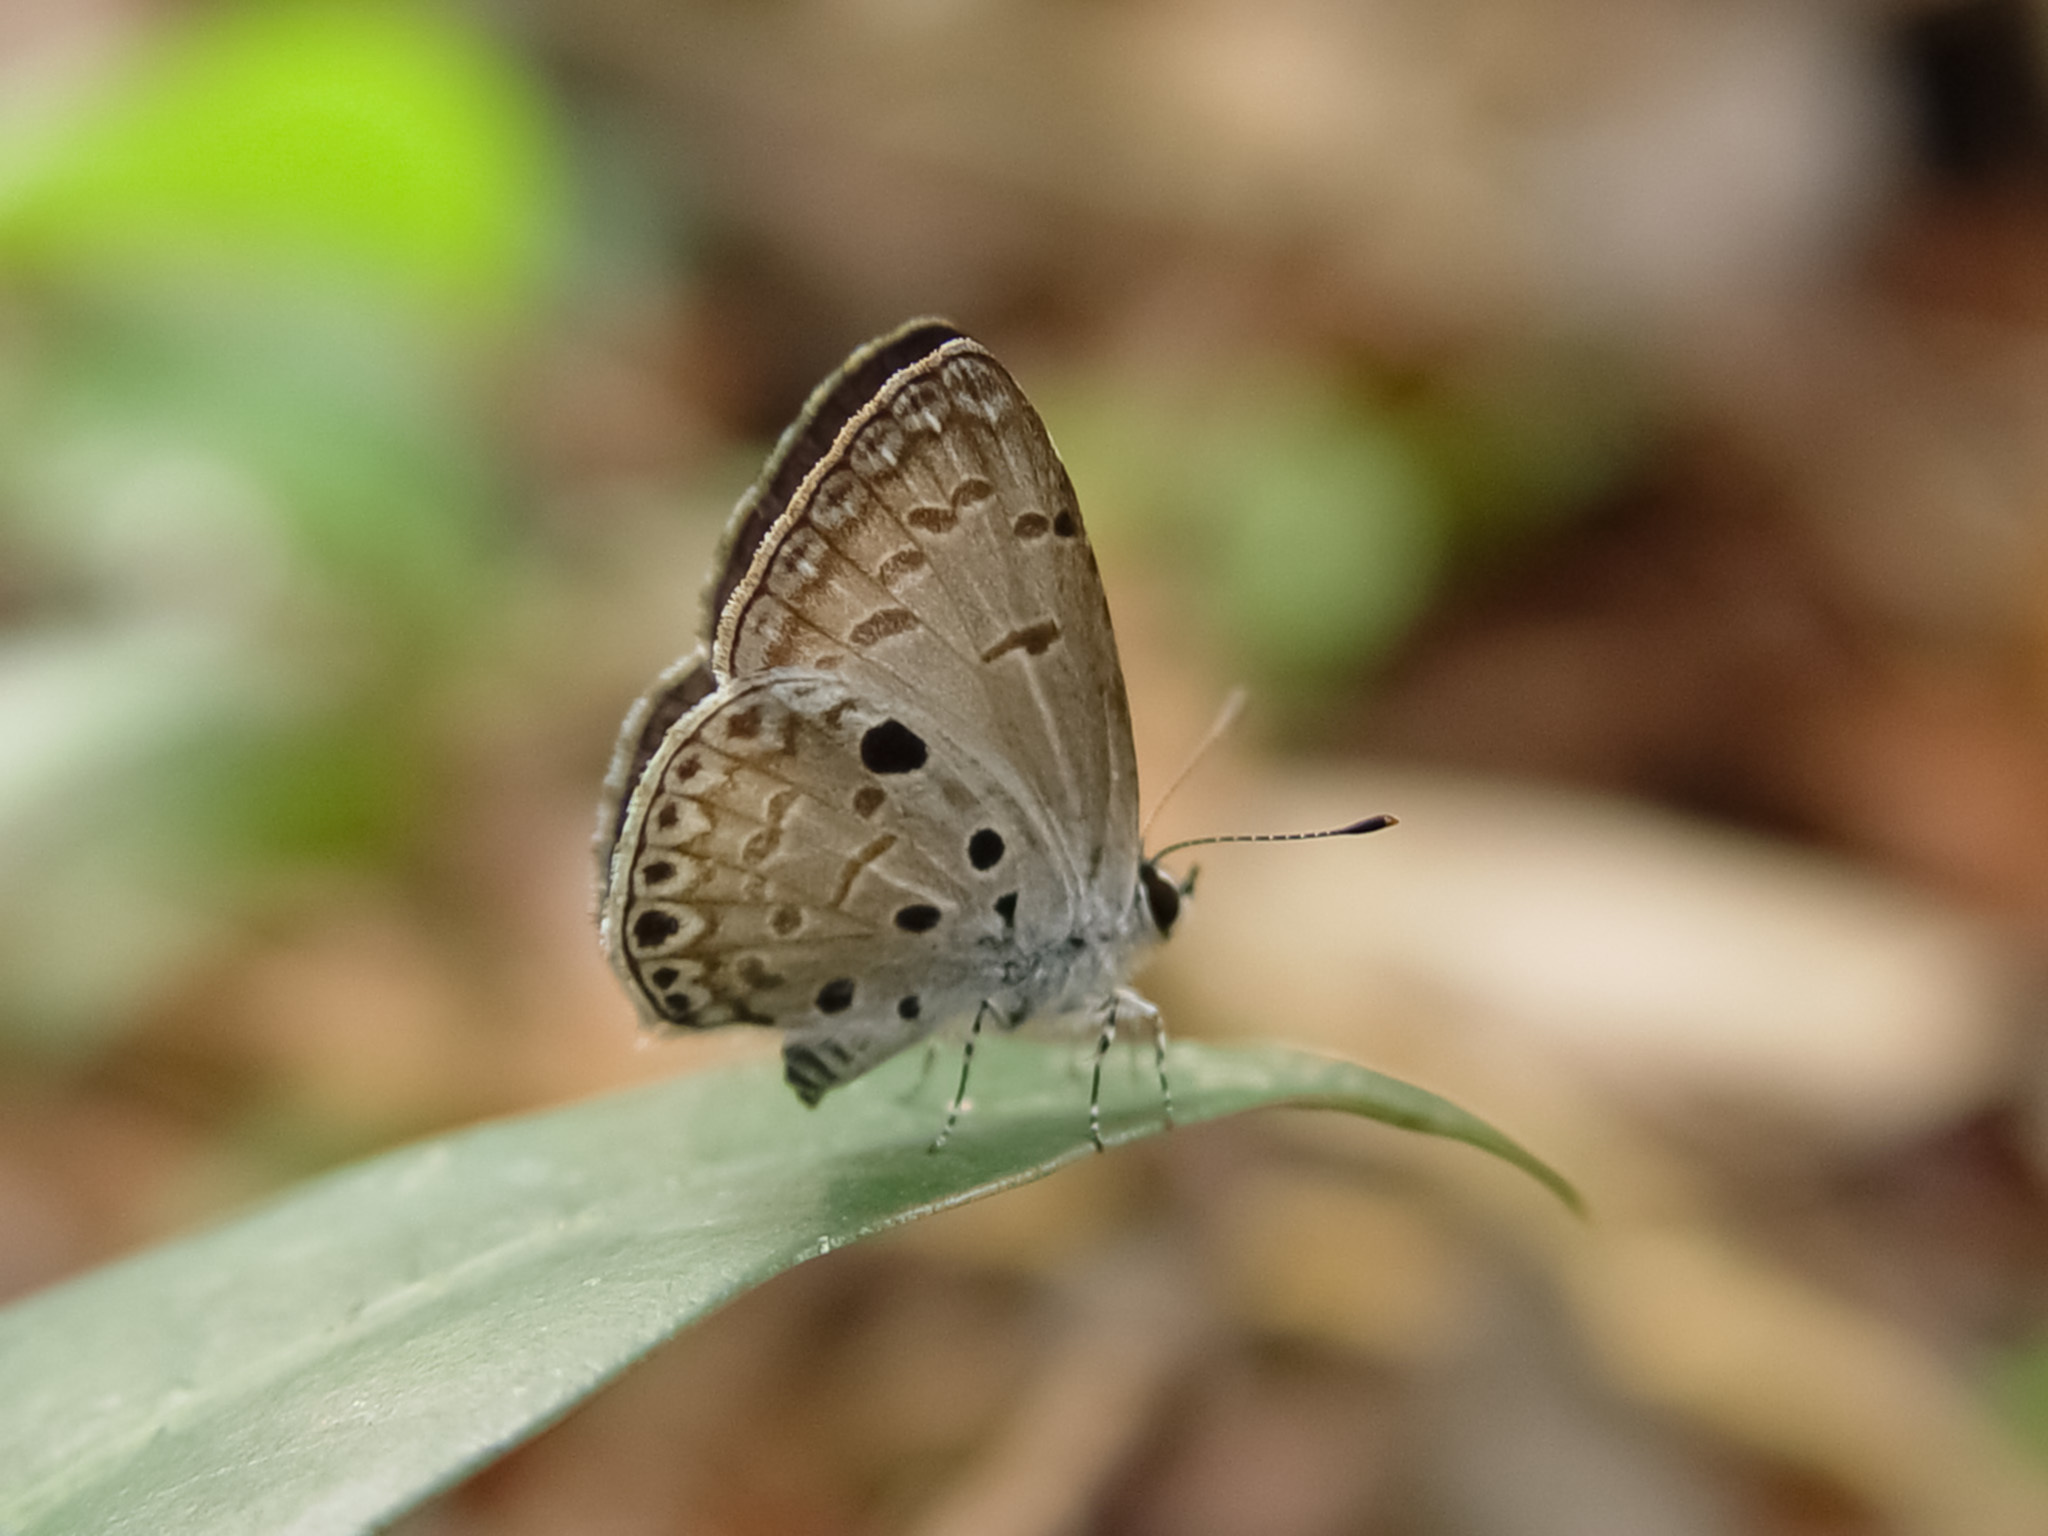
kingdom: Animalia
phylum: Arthropoda
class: Insecta
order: Lepidoptera
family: Lycaenidae
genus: Acytolepis
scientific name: Acytolepis puspa
